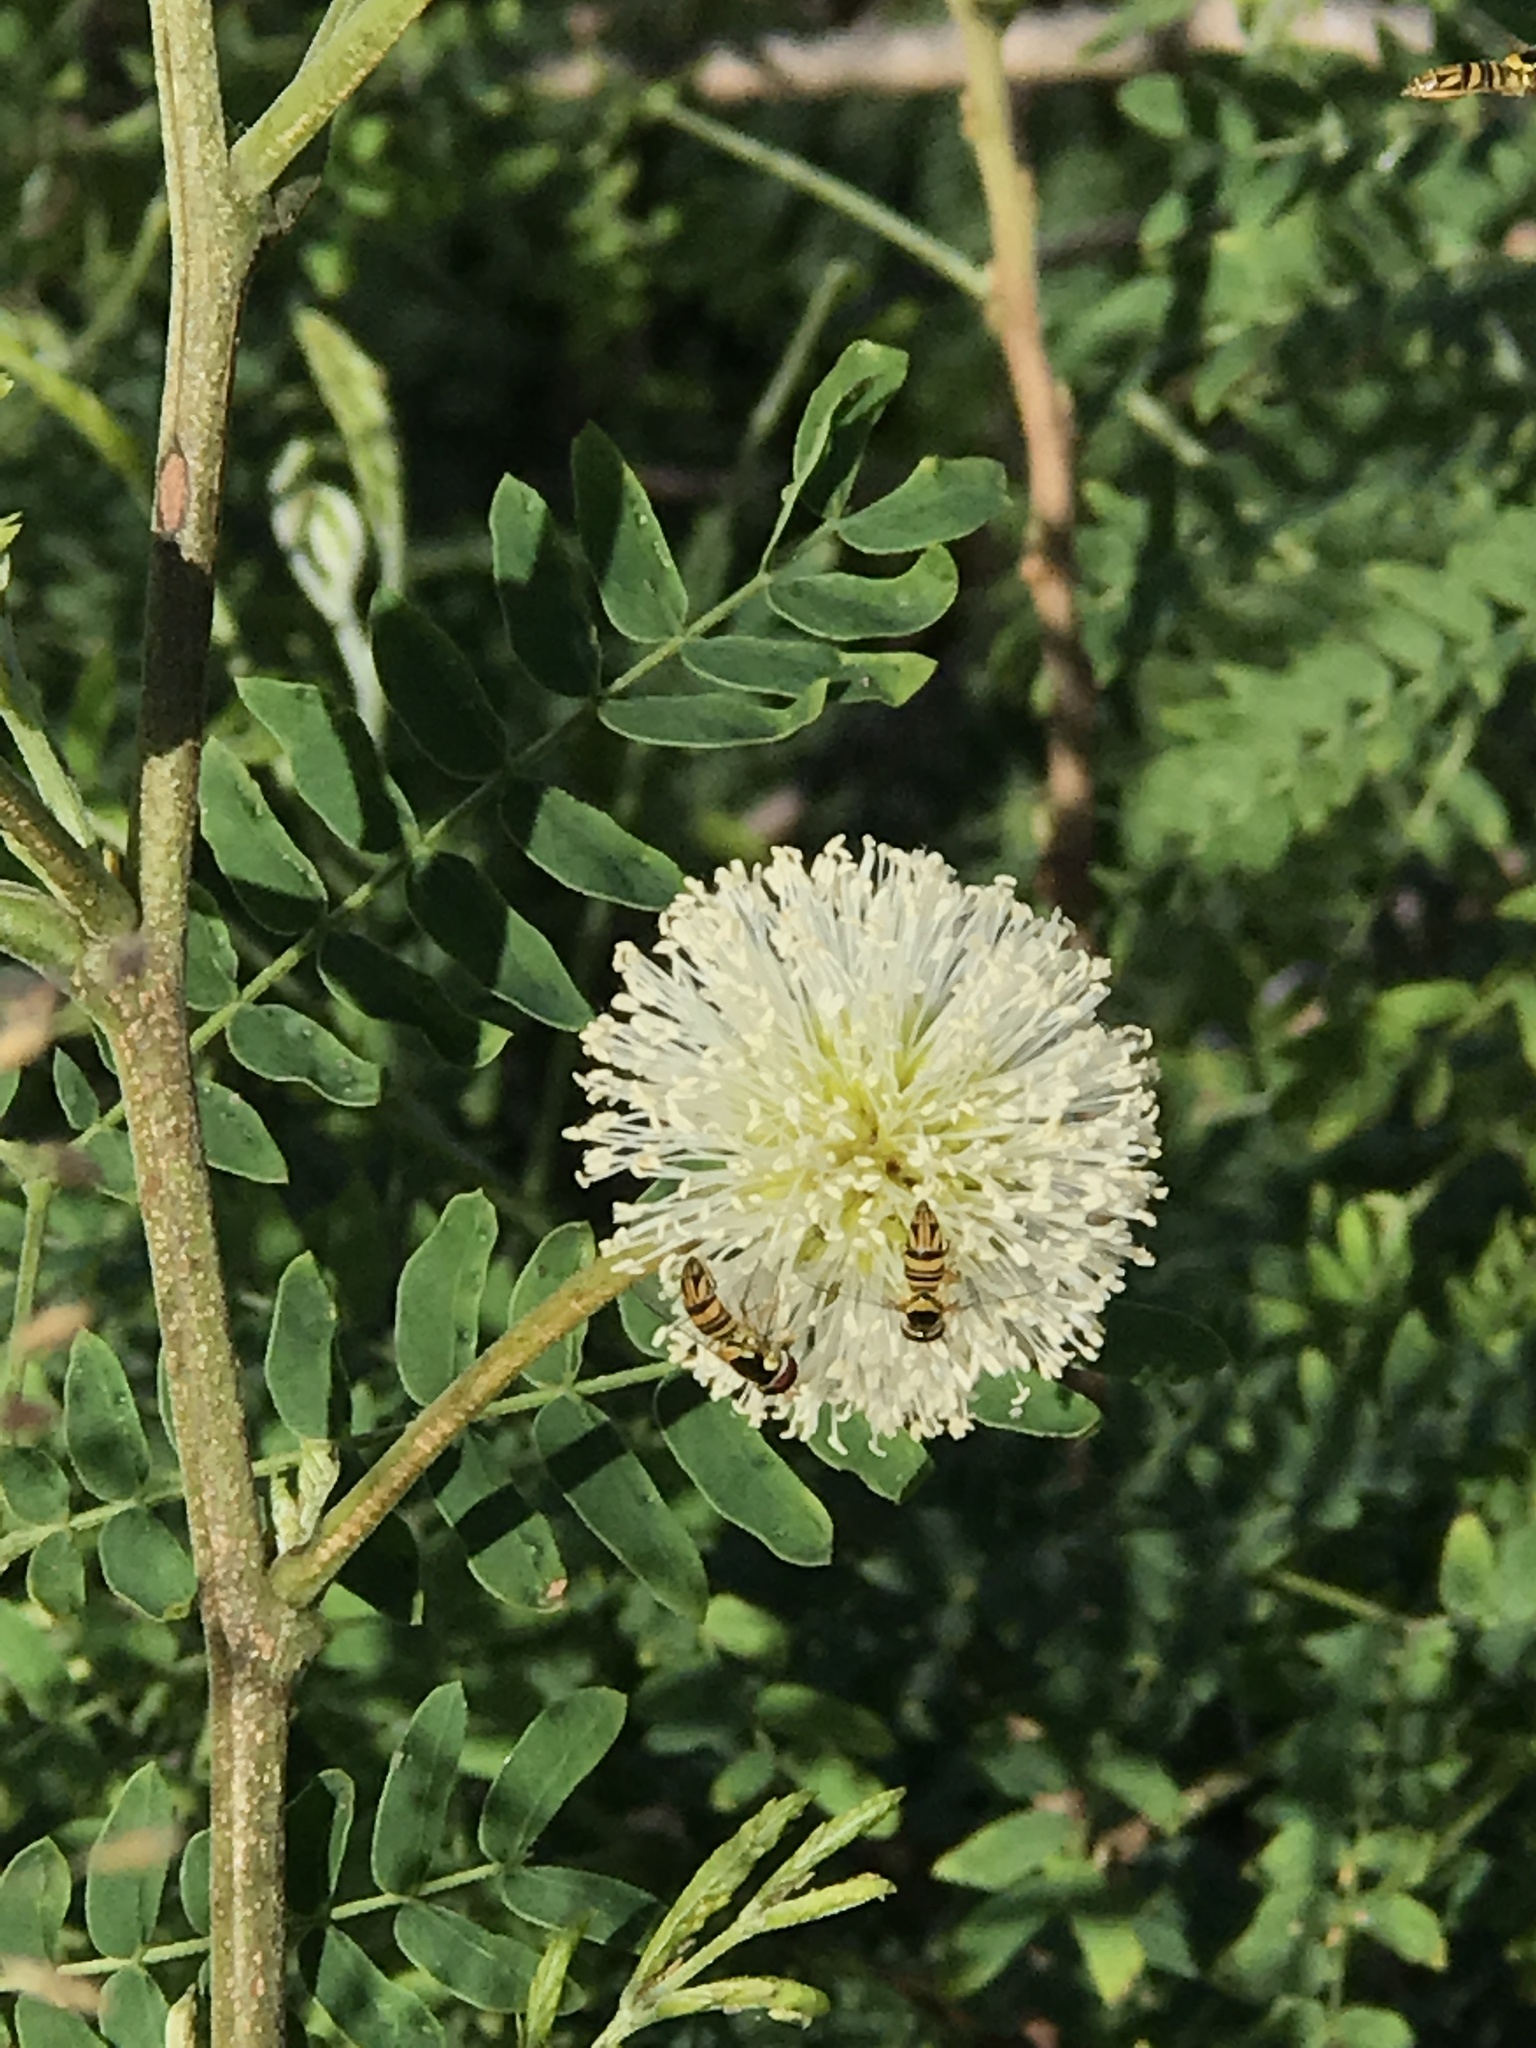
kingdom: Plantae
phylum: Tracheophyta
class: Magnoliopsida
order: Fabales
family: Fabaceae
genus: Leucaena
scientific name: Leucaena leucocephala
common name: White leadtree
